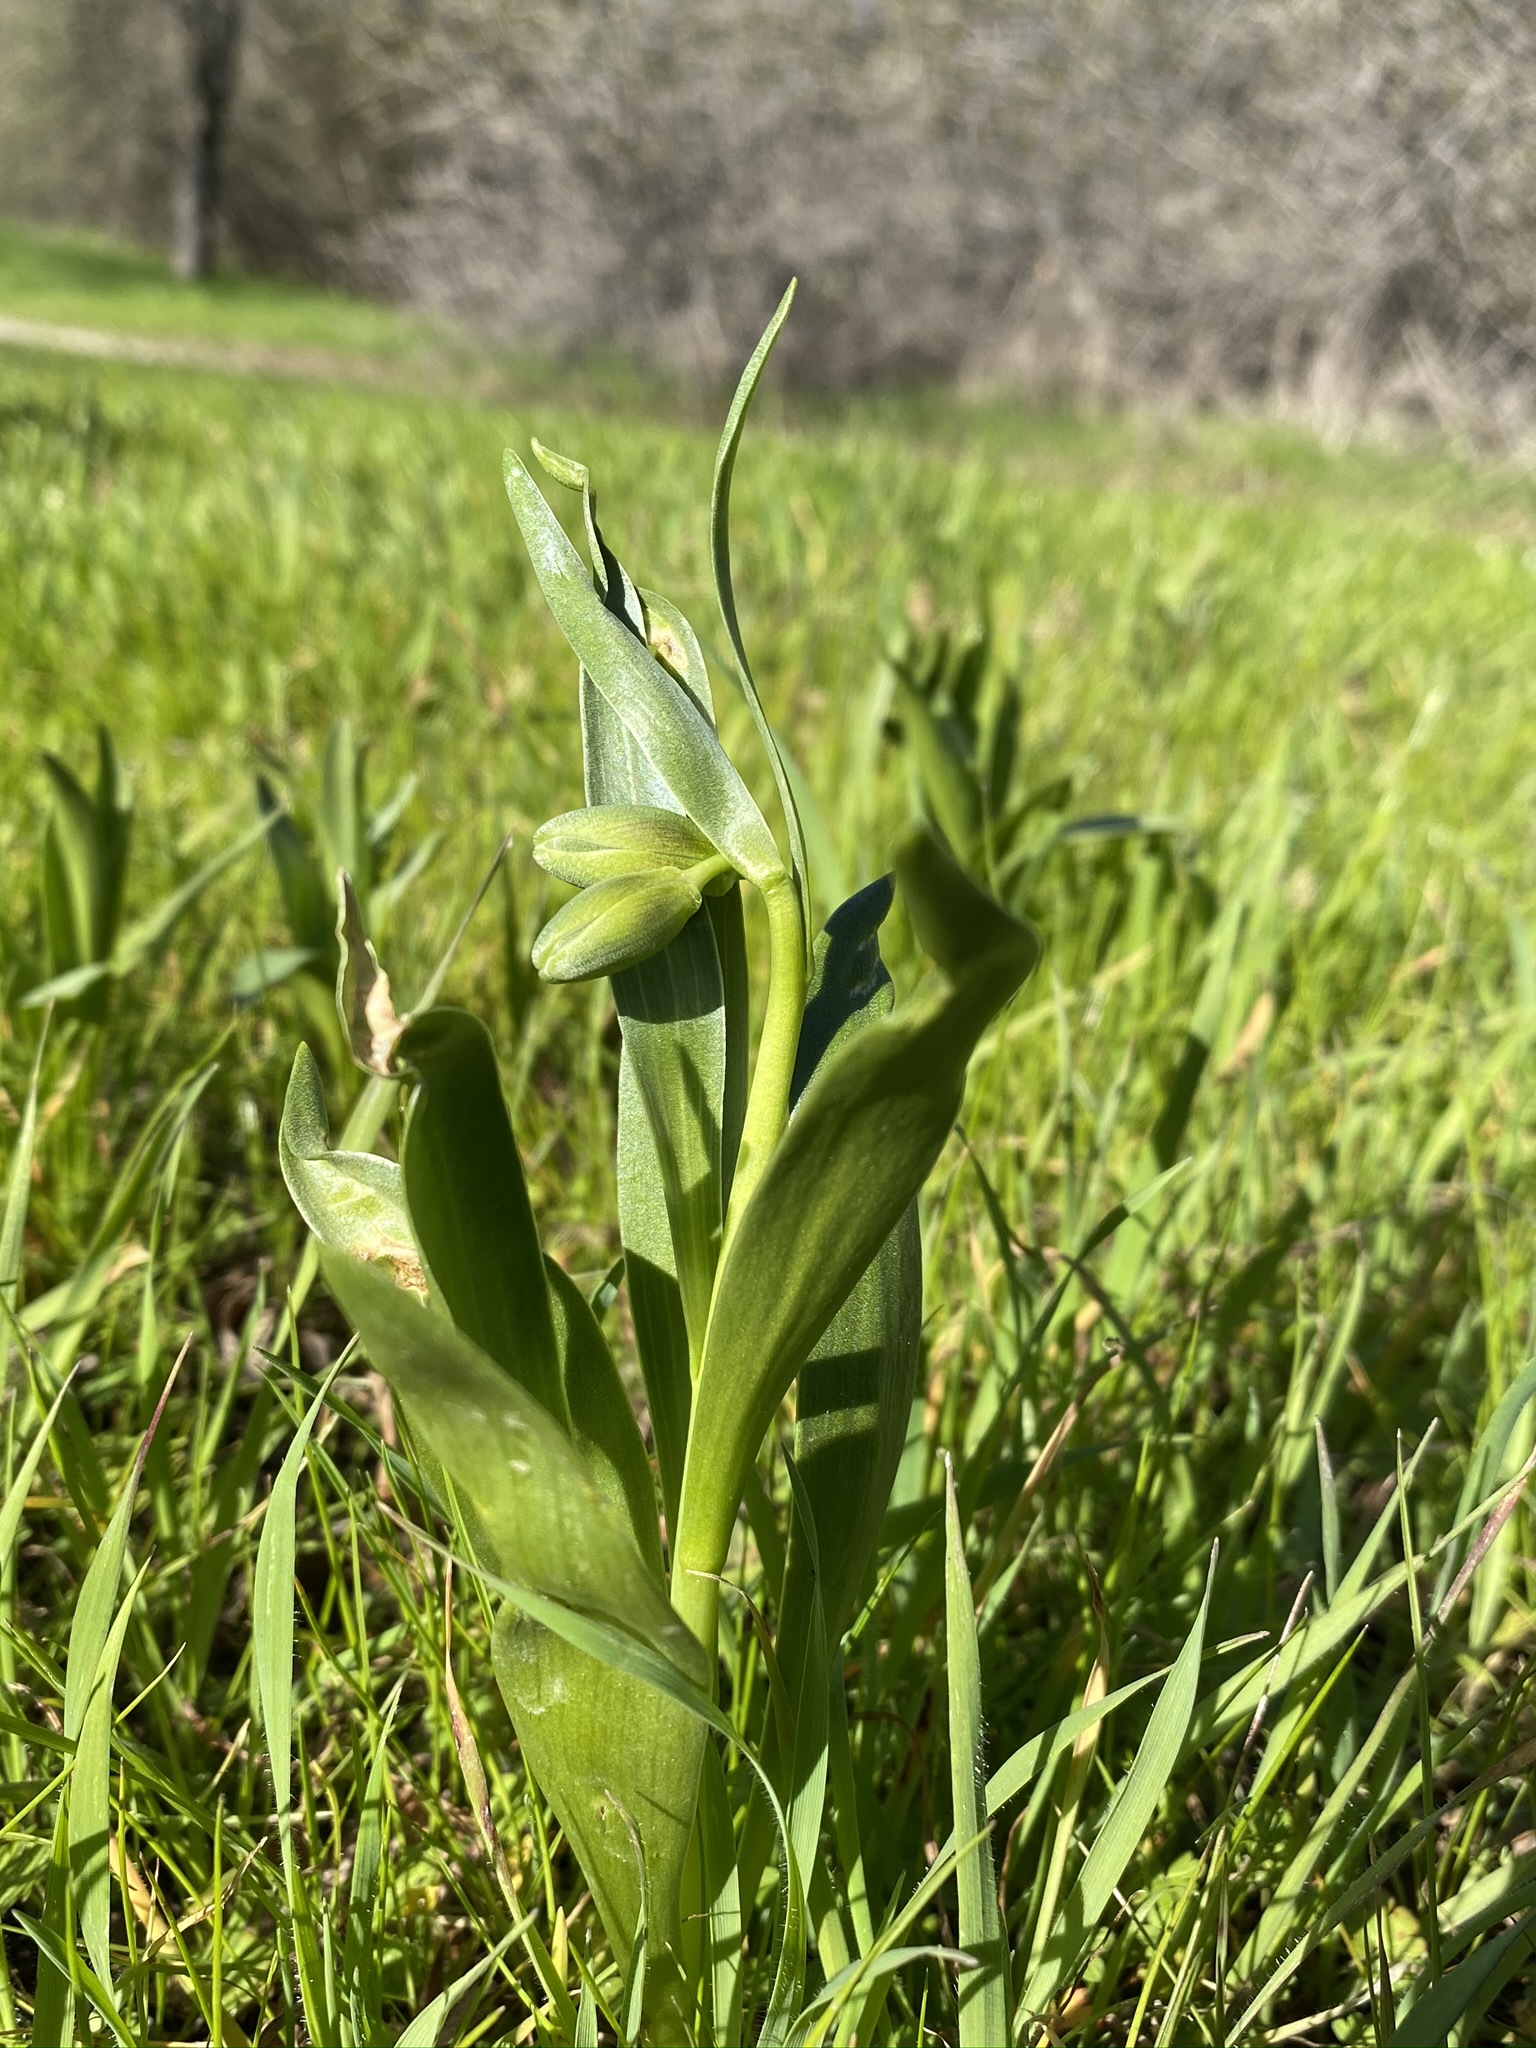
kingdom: Plantae
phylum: Tracheophyta
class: Liliopsida
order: Liliales
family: Liliaceae
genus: Fritillaria
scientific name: Fritillaria agrestis
